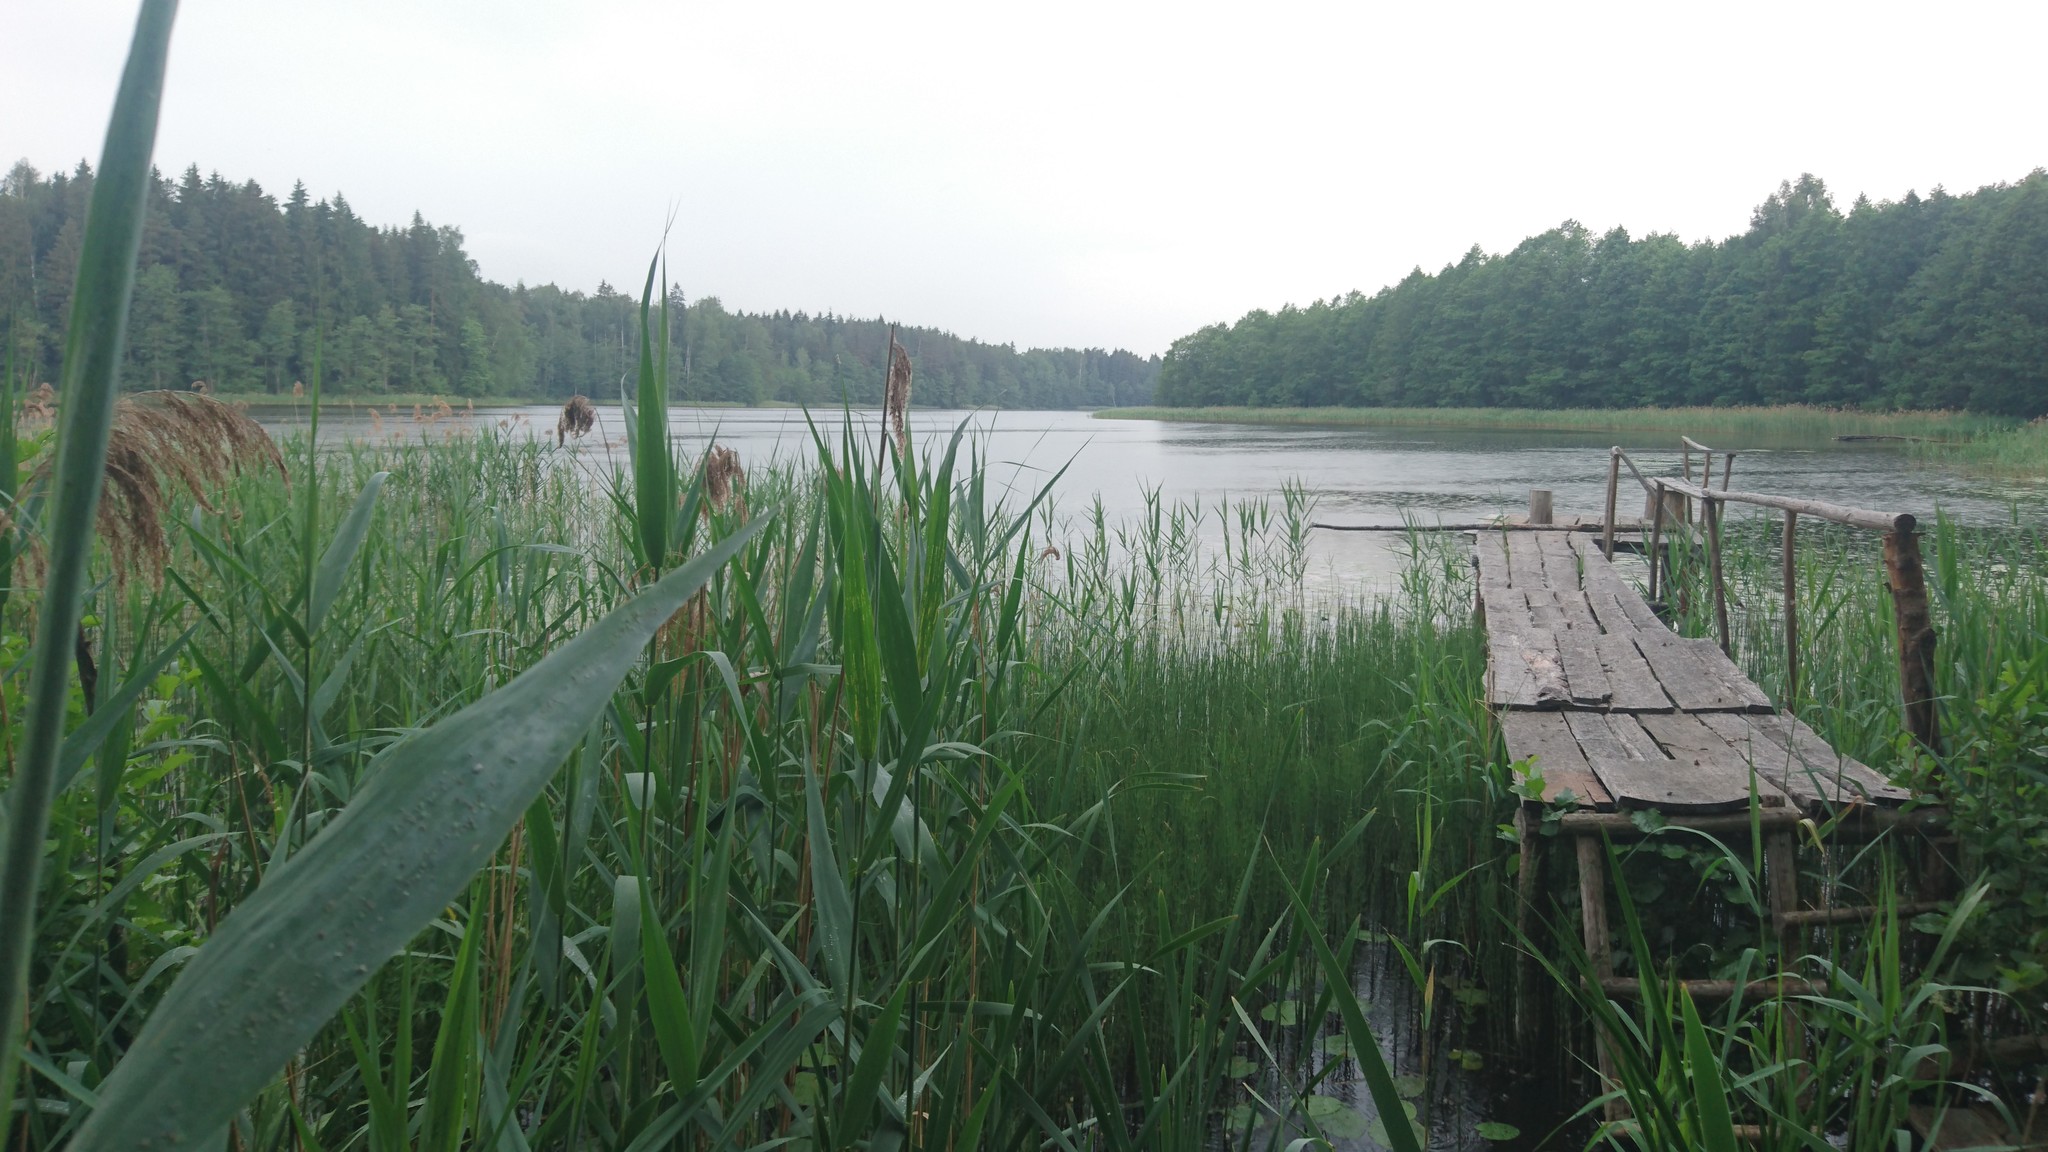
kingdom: Plantae
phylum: Tracheophyta
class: Liliopsida
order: Poales
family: Poaceae
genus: Phragmites
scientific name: Phragmites australis
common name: Common reed
